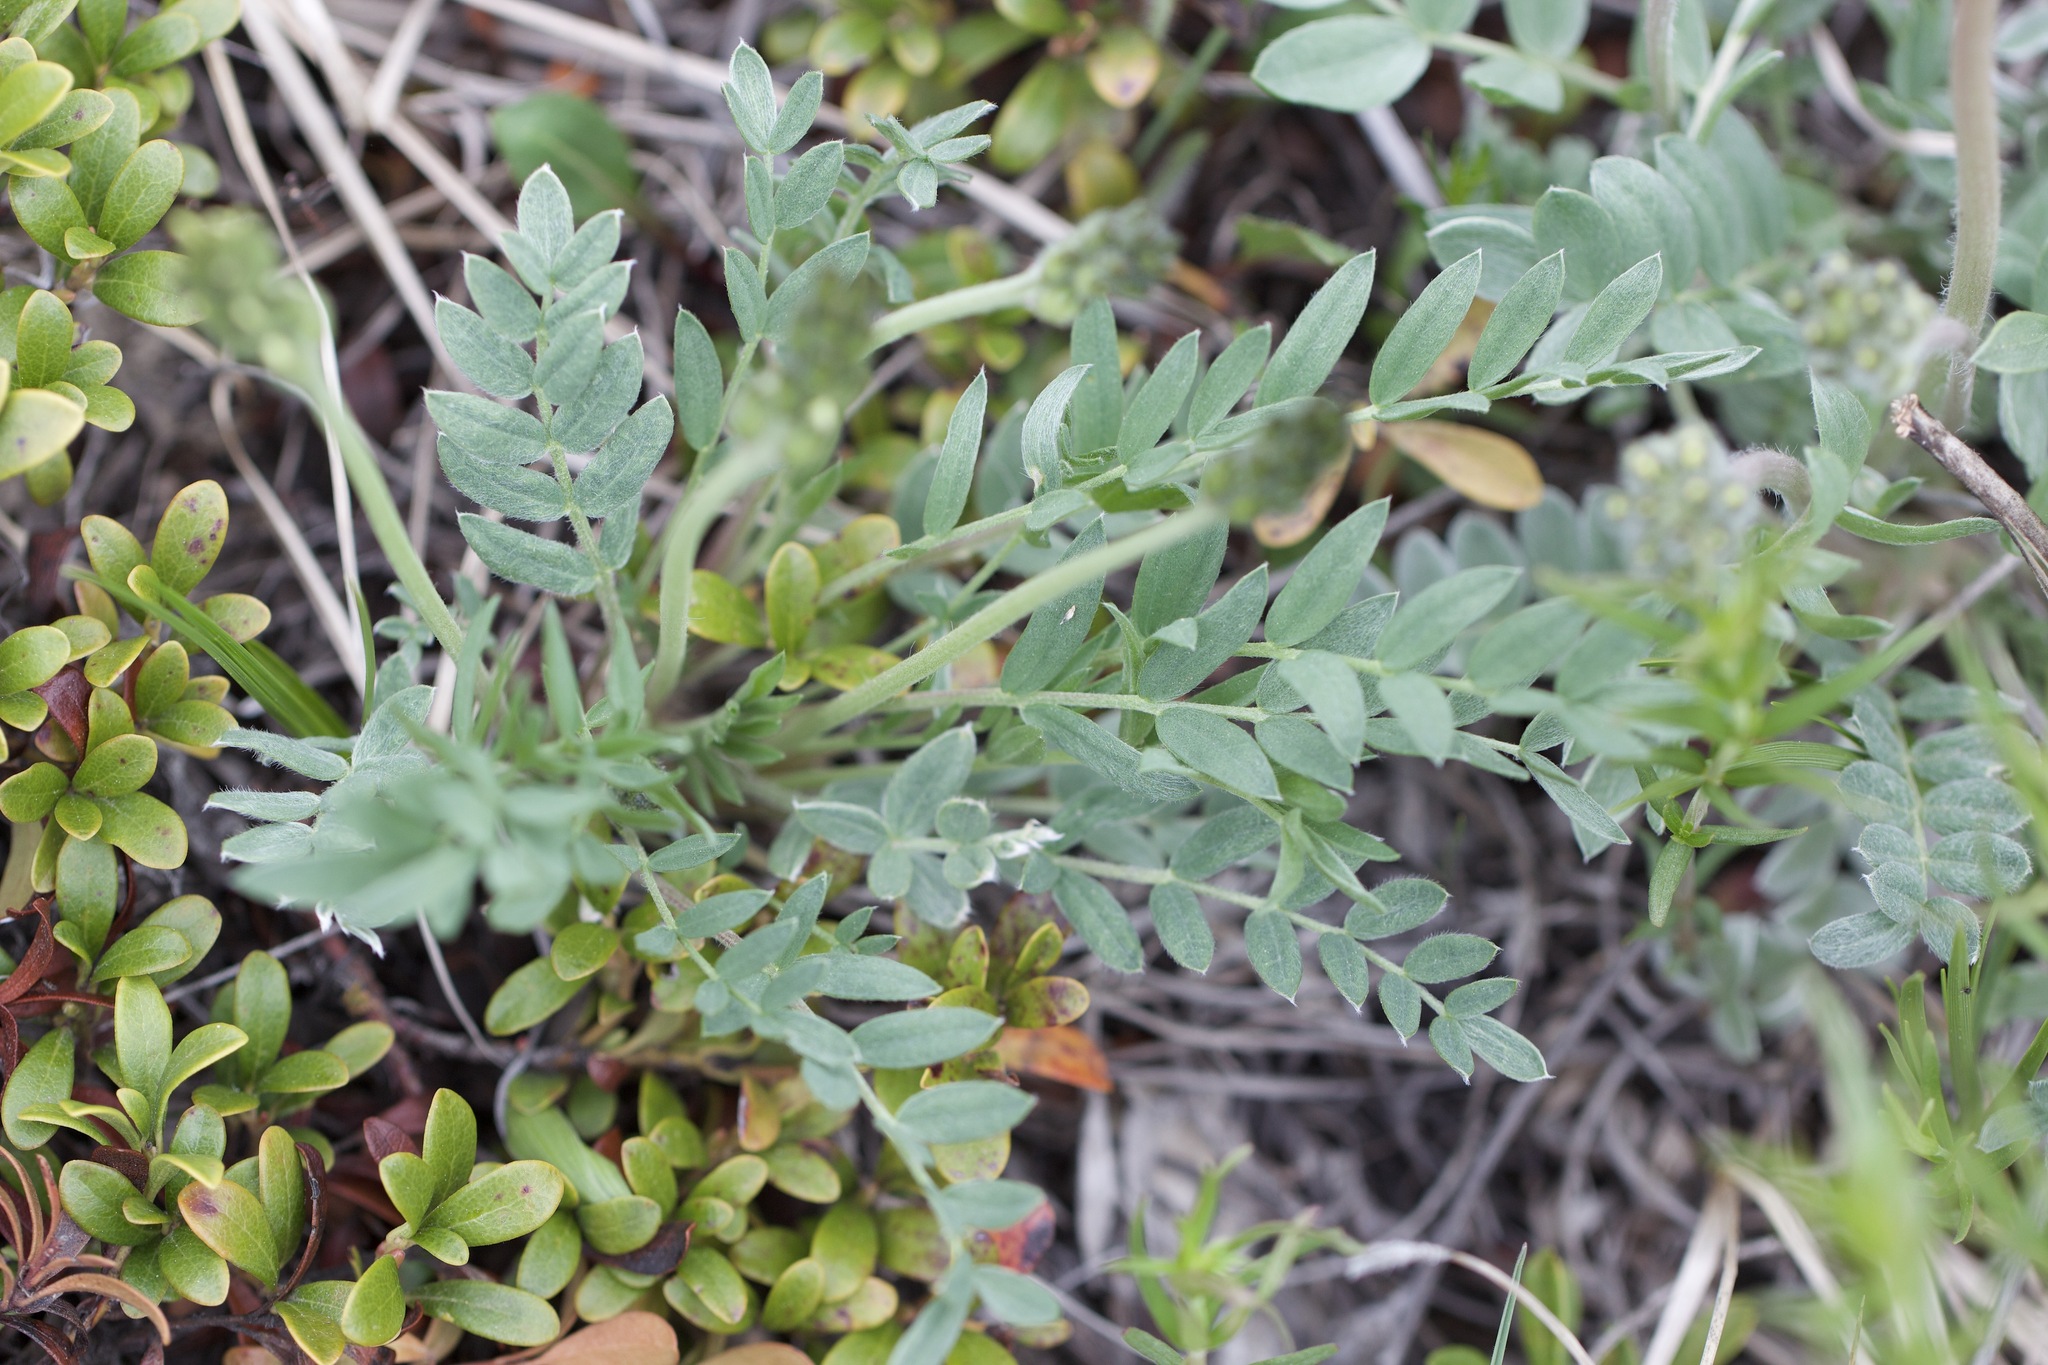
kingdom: Plantae
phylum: Tracheophyta
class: Magnoliopsida
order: Fabales
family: Fabaceae
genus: Oxytropis
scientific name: Oxytropis sericea
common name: Silky locoweed
